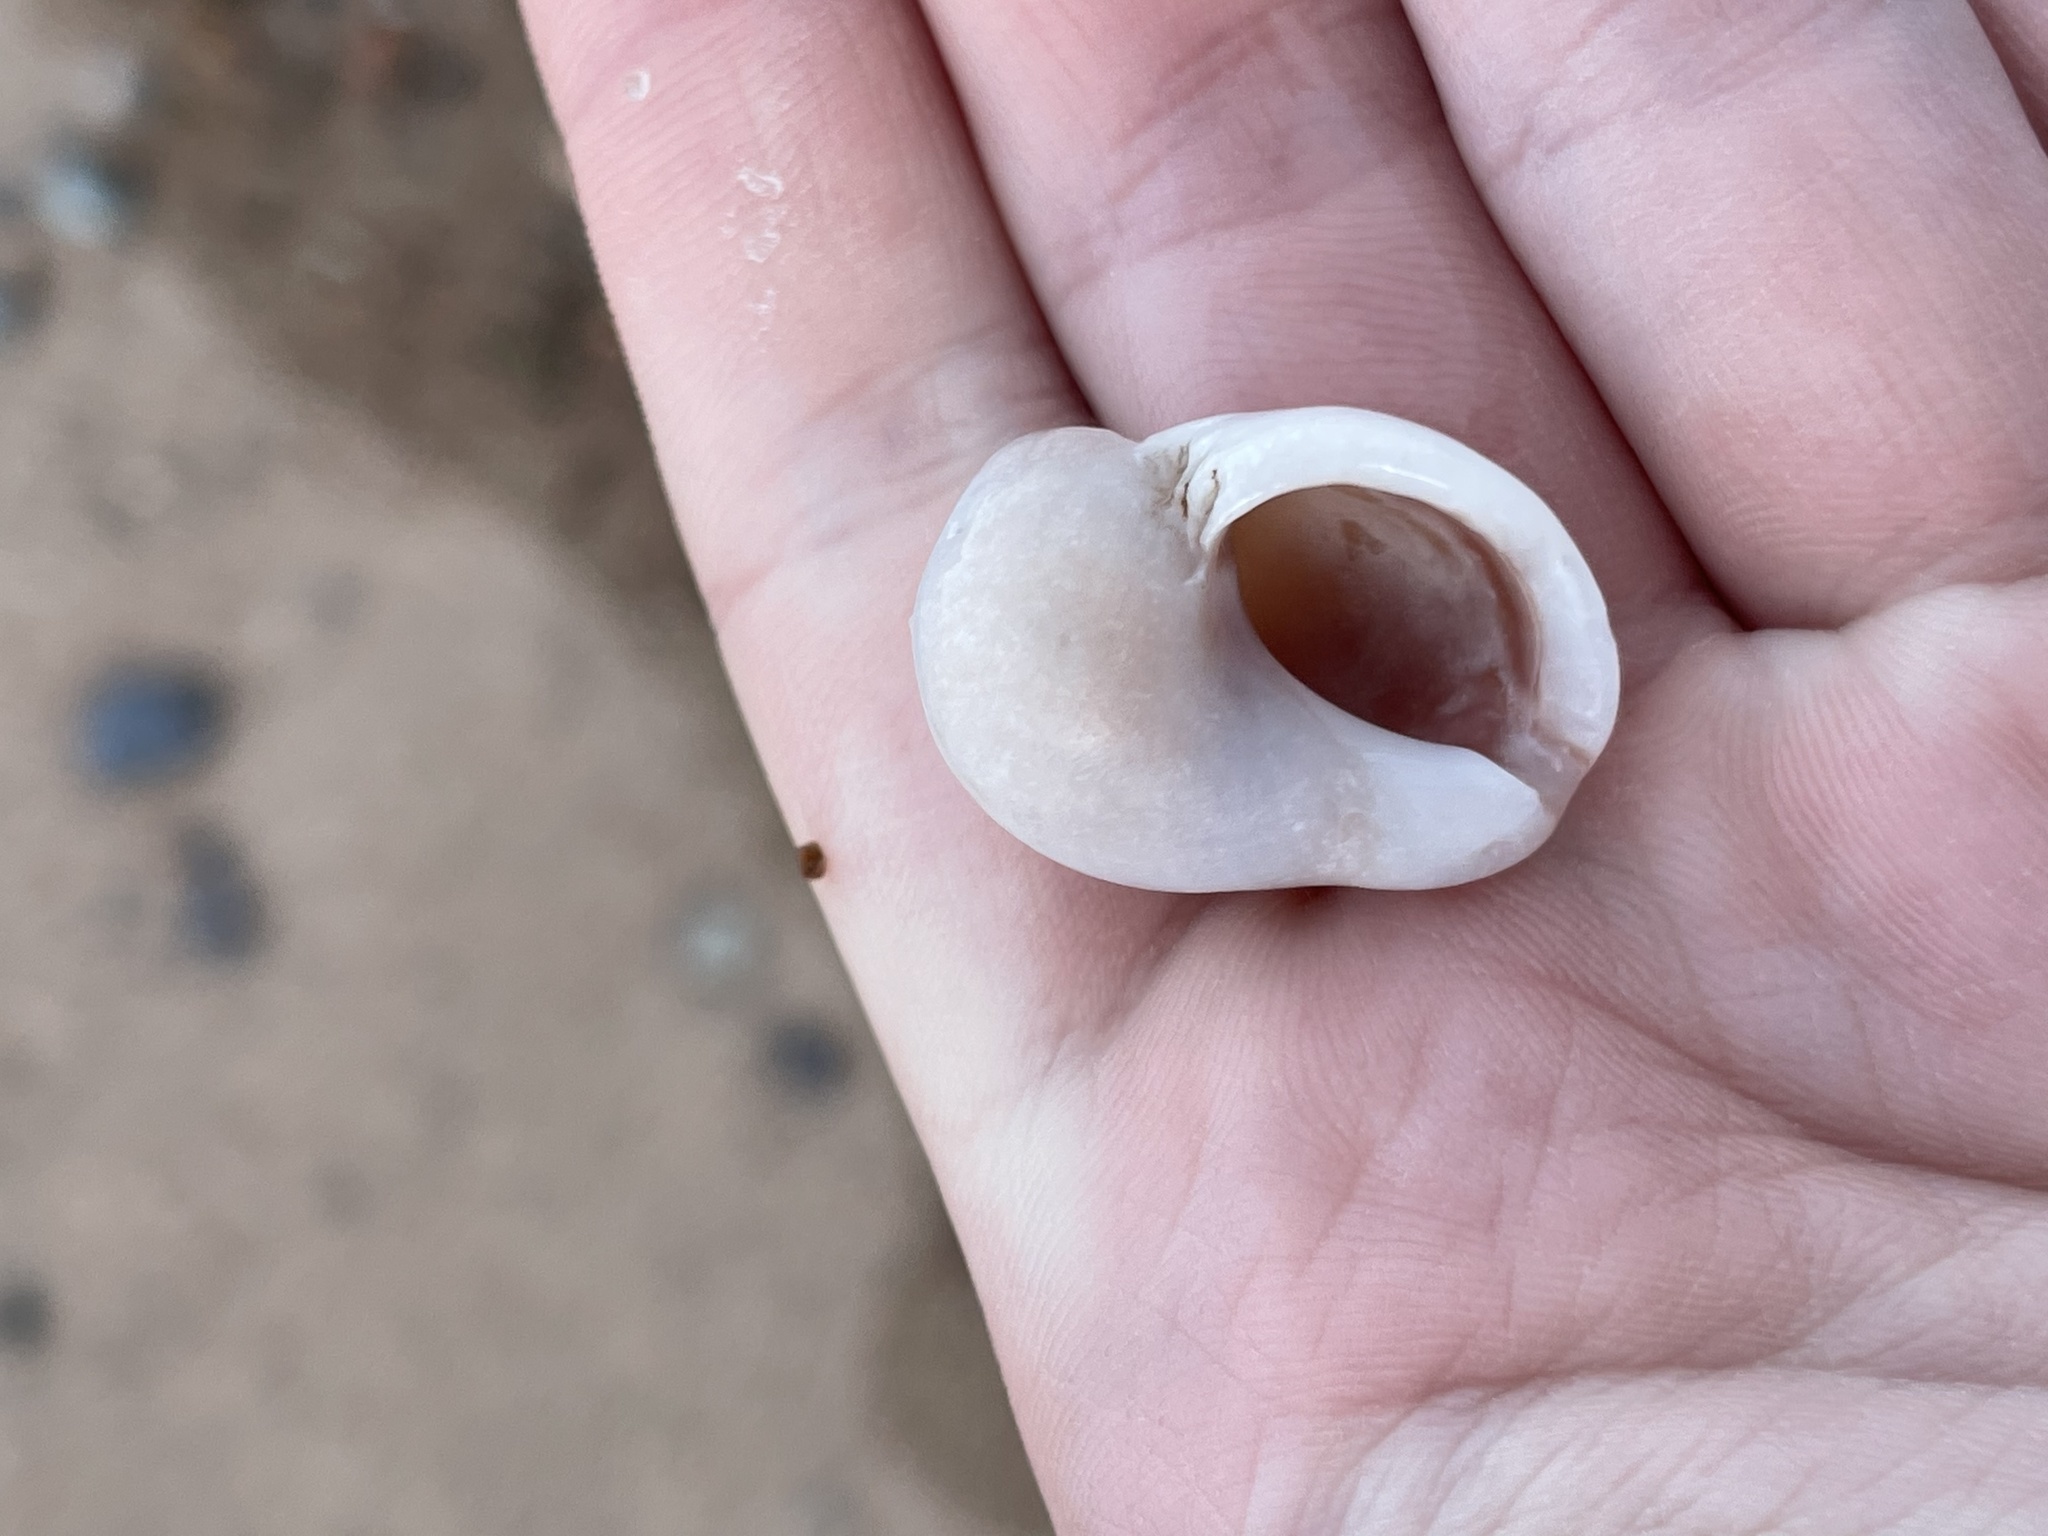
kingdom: Animalia
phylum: Mollusca
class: Gastropoda
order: Neogastropoda
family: Muricidae
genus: Nucella
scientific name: Nucella lapillus
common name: Dog whelk
